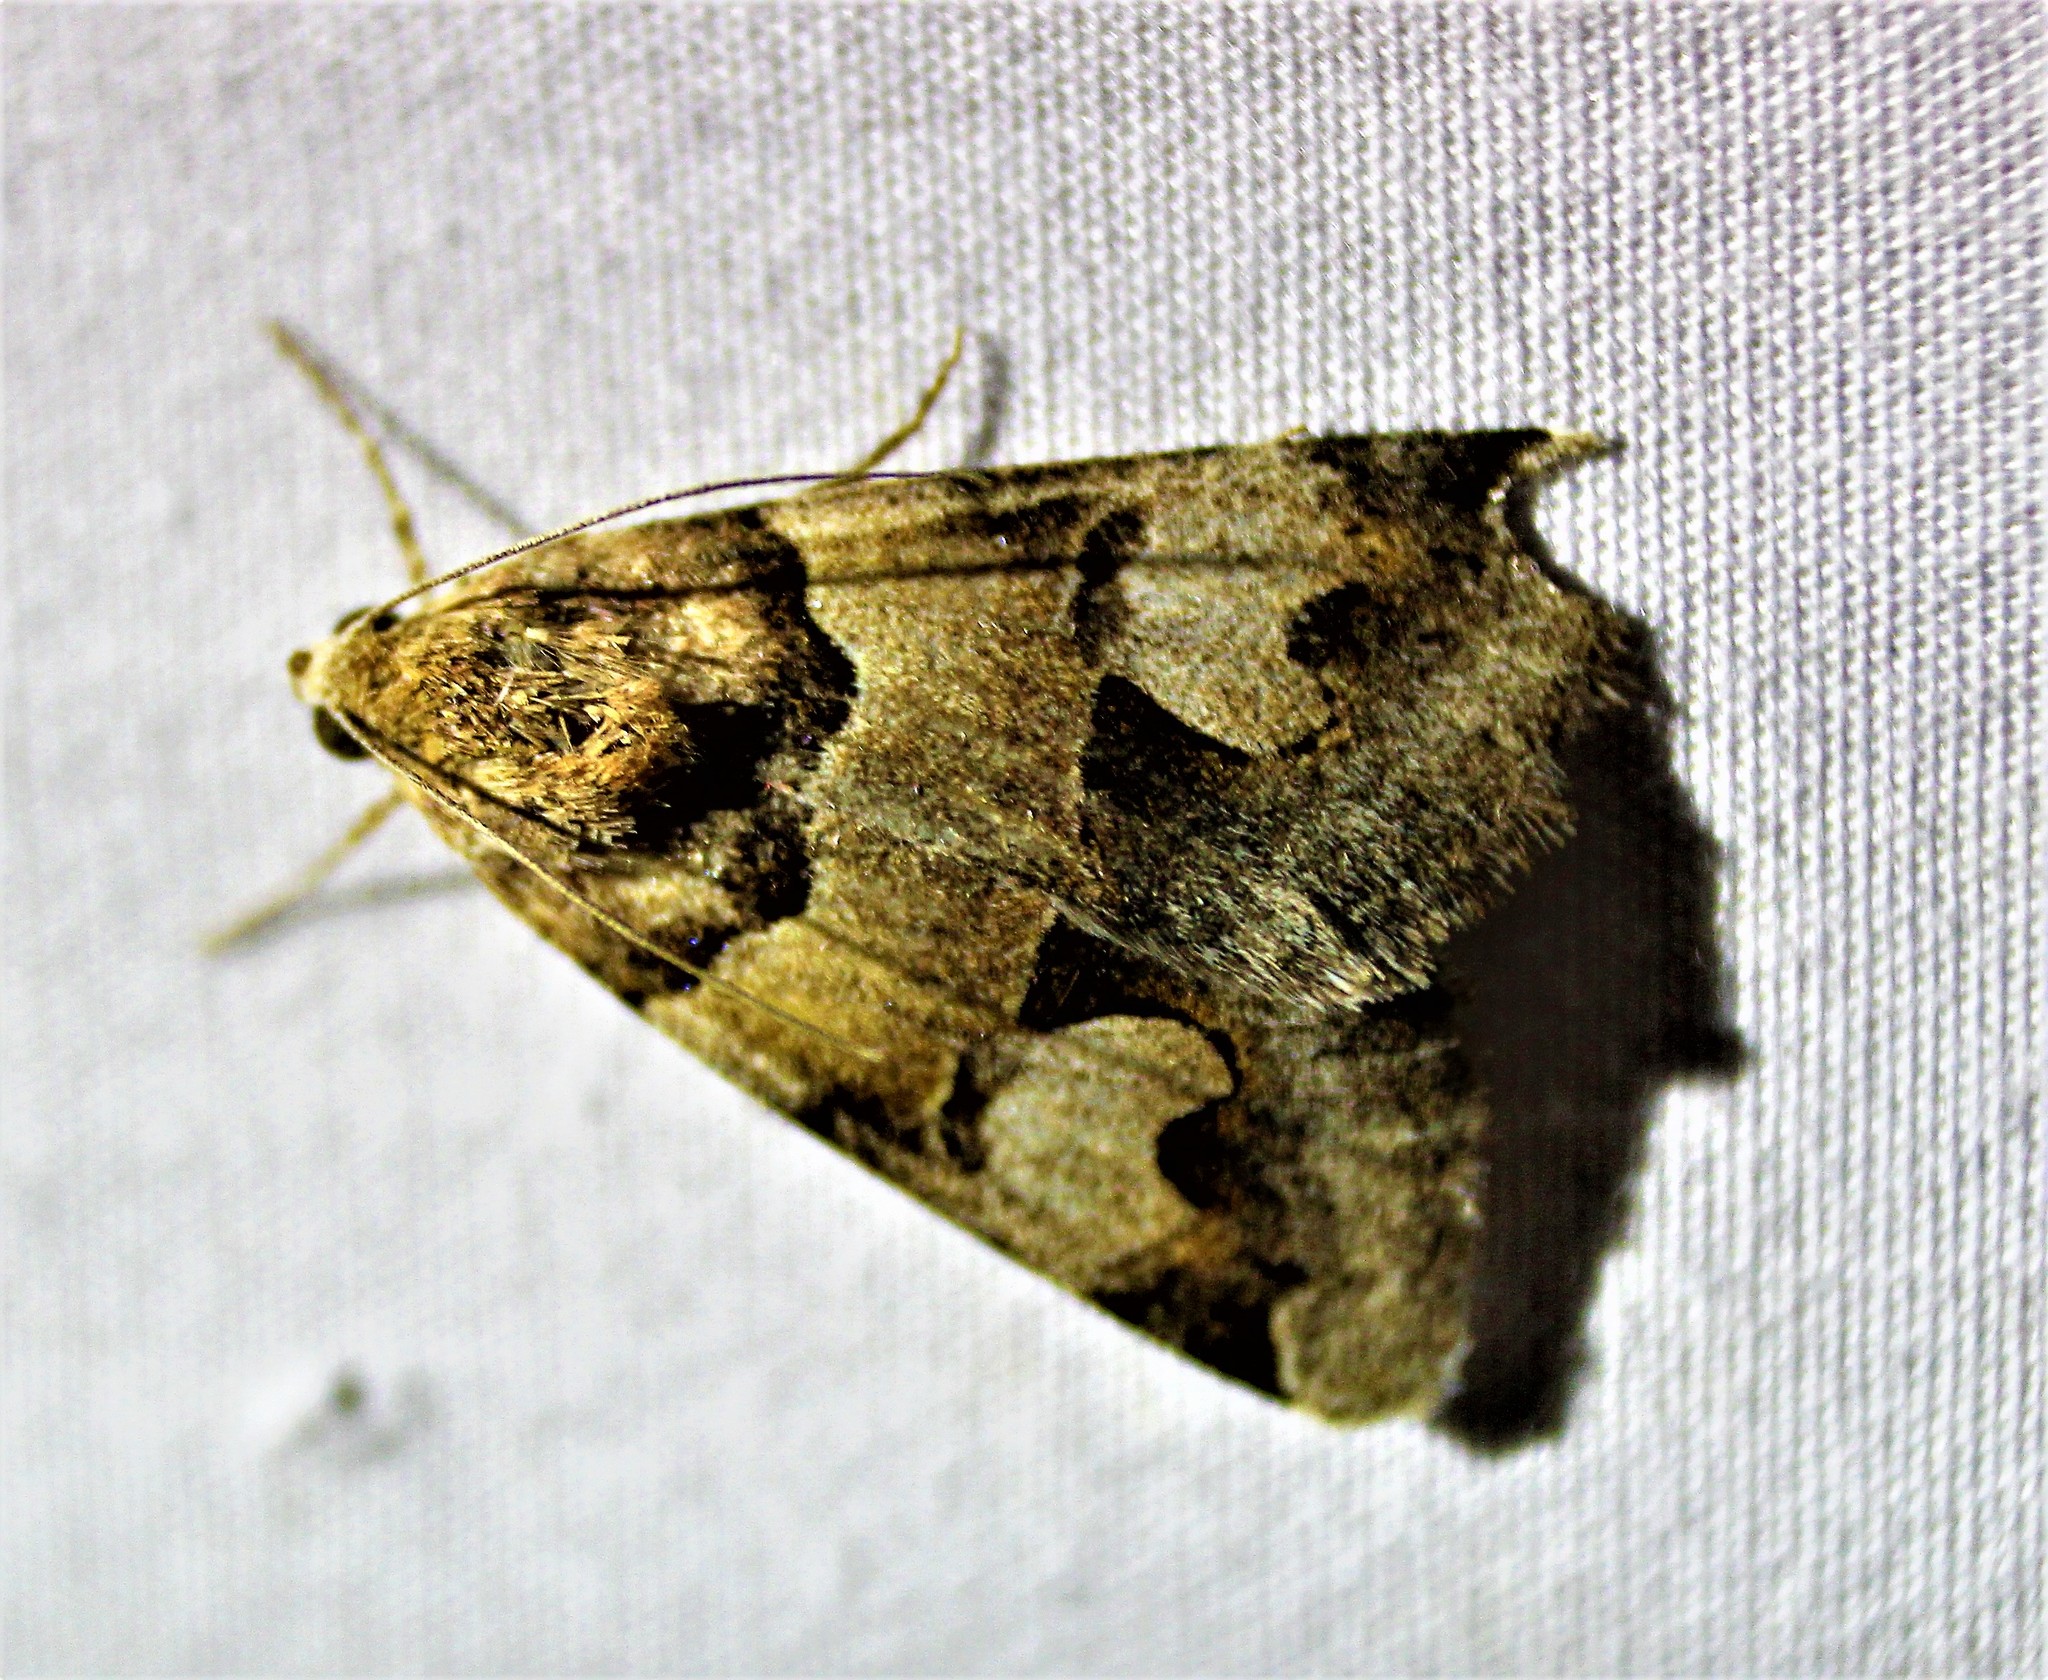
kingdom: Animalia
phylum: Arthropoda
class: Insecta
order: Lepidoptera
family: Erebidae
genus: Drasteria
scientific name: Drasteria adumbrata
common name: Shadowy arches
